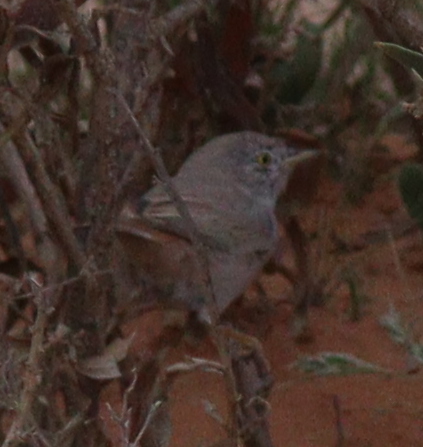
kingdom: Animalia
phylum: Chordata
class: Aves
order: Passeriformes
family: Sylviidae
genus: Sylvia
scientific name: Sylvia nana
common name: Asian desert warbler
